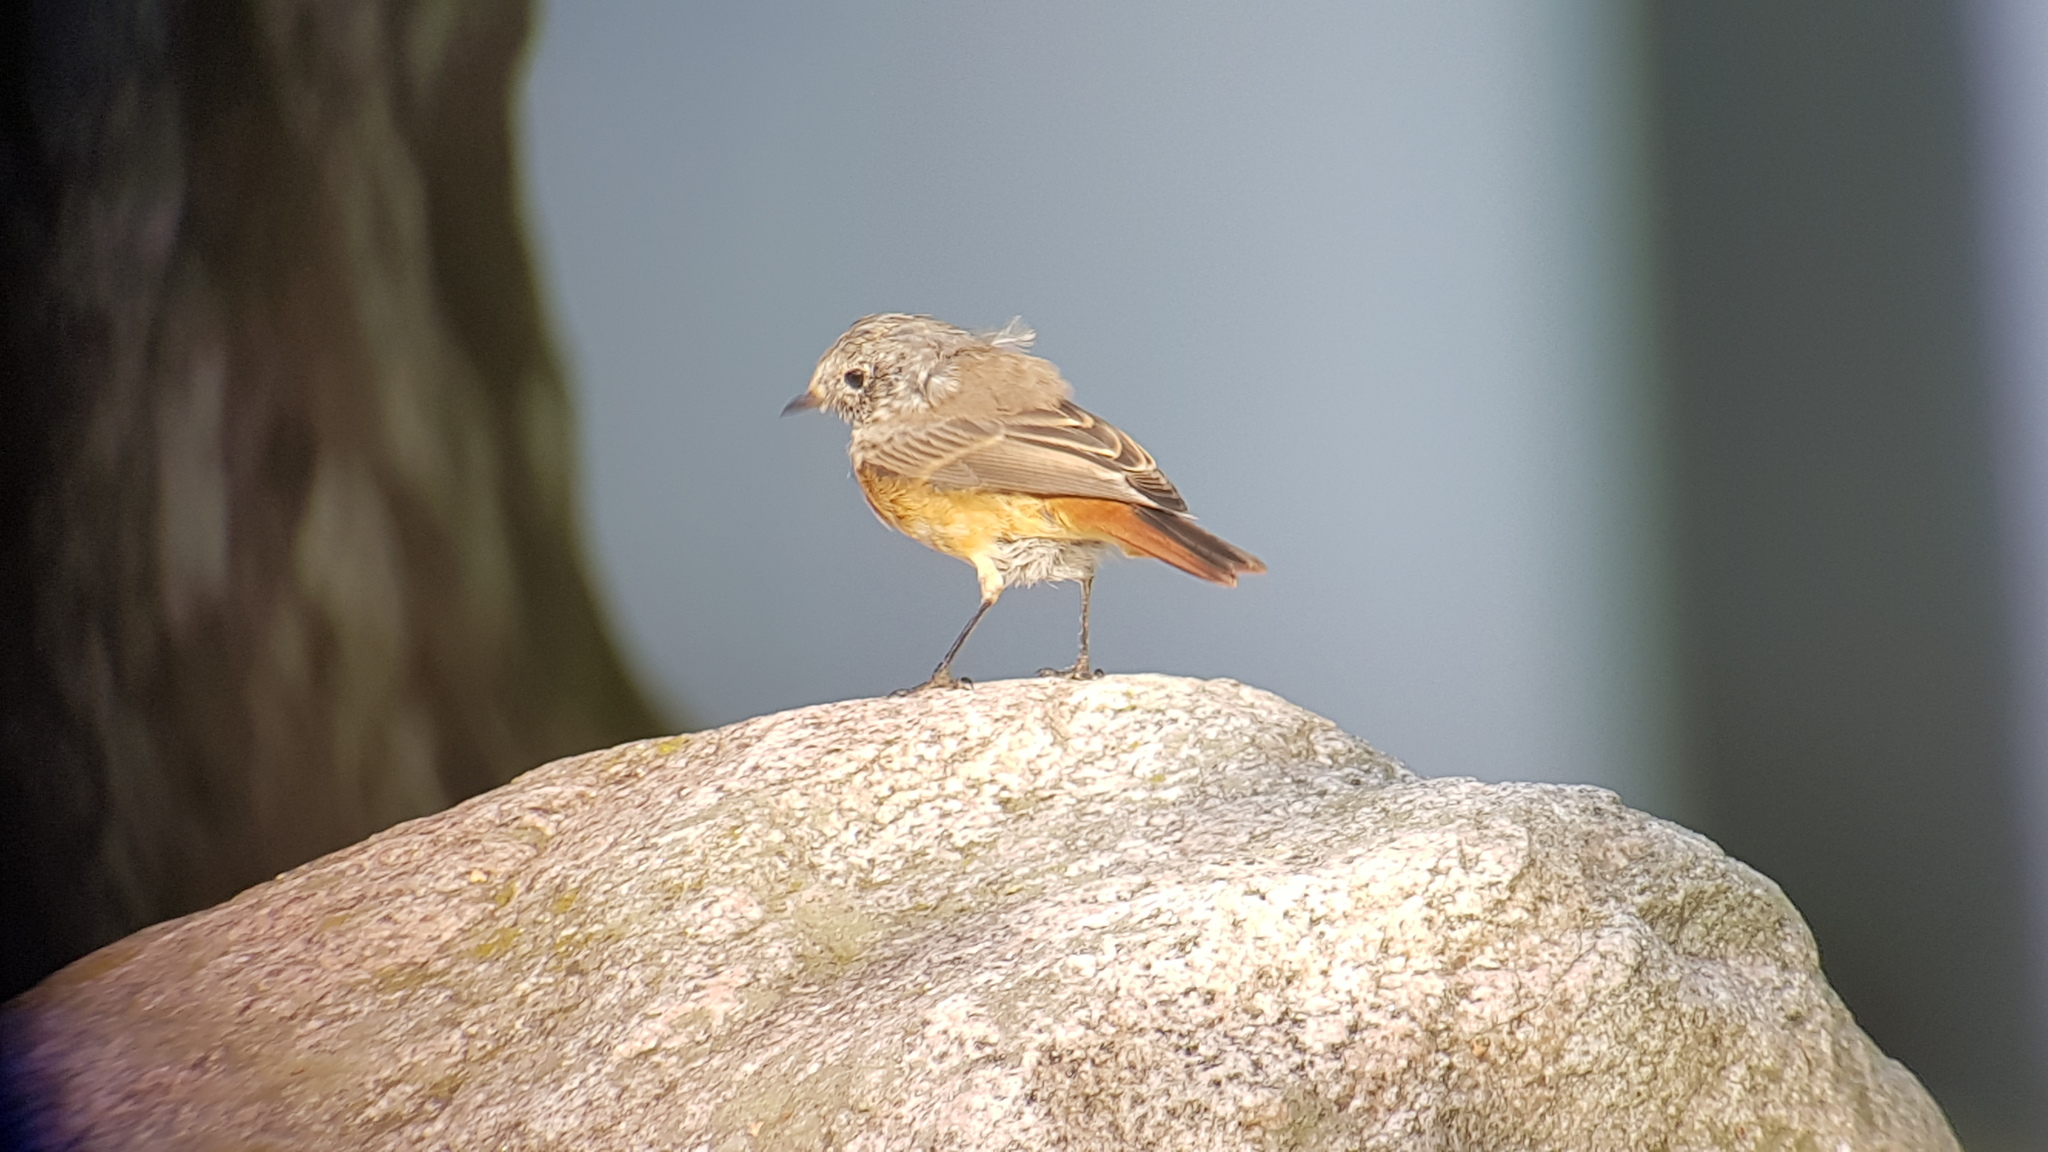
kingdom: Animalia
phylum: Chordata
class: Aves
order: Passeriformes
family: Muscicapidae
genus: Phoenicurus
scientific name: Phoenicurus phoenicurus
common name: Common redstart
